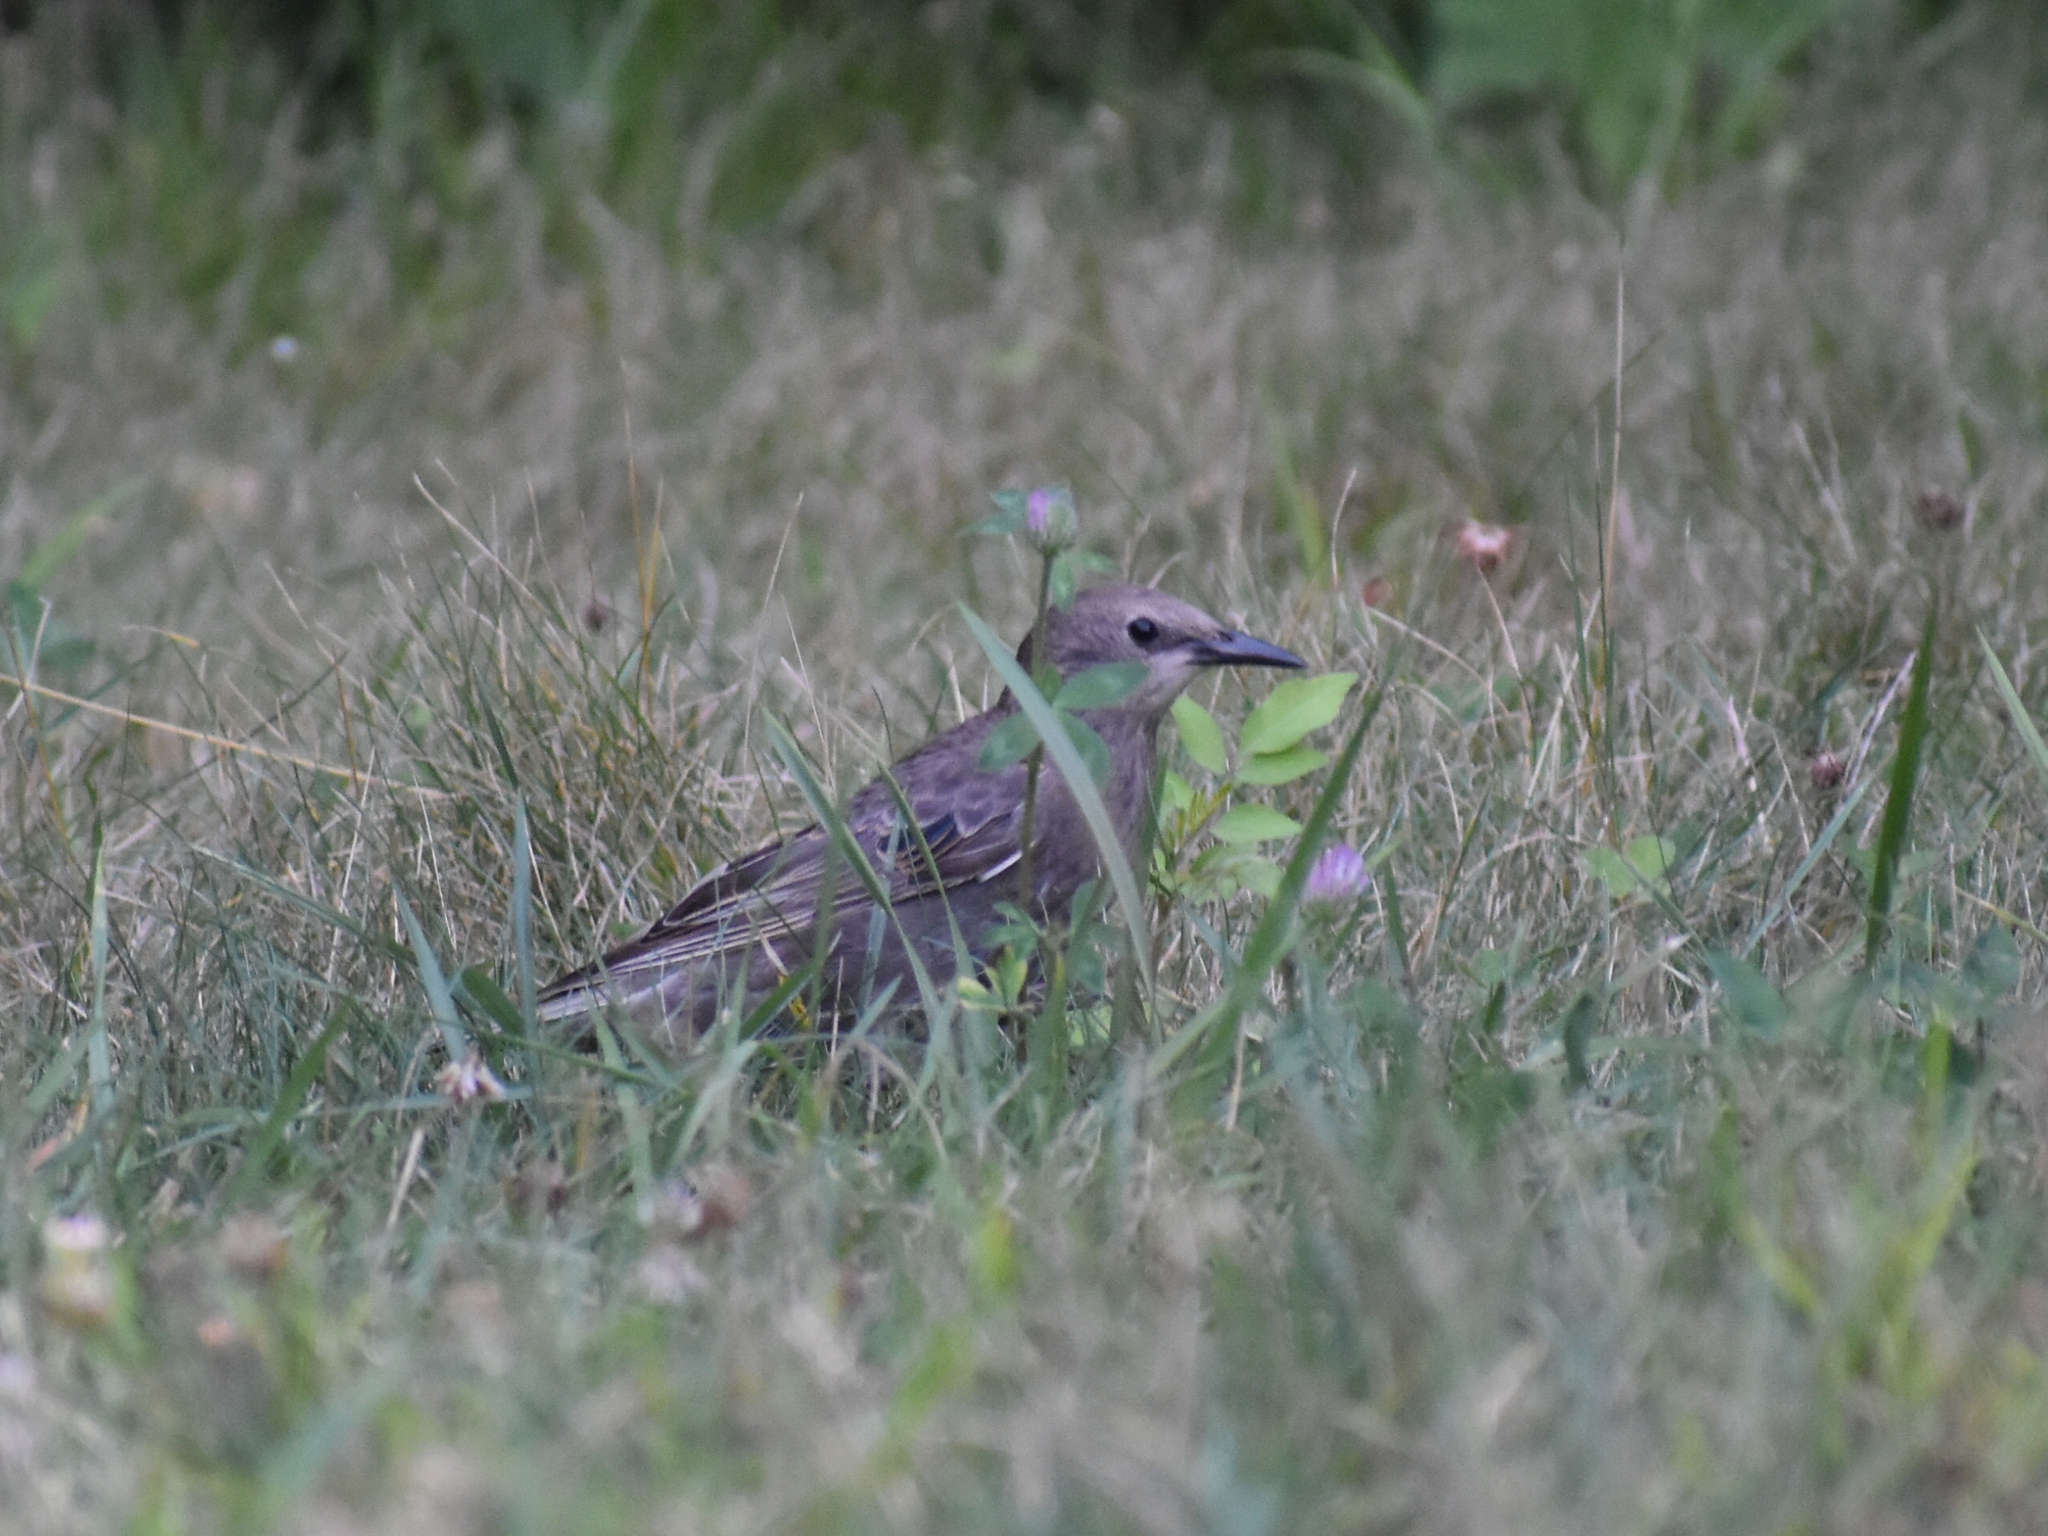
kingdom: Animalia
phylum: Chordata
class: Aves
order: Passeriformes
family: Sturnidae
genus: Sturnus
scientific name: Sturnus vulgaris
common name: Common starling
